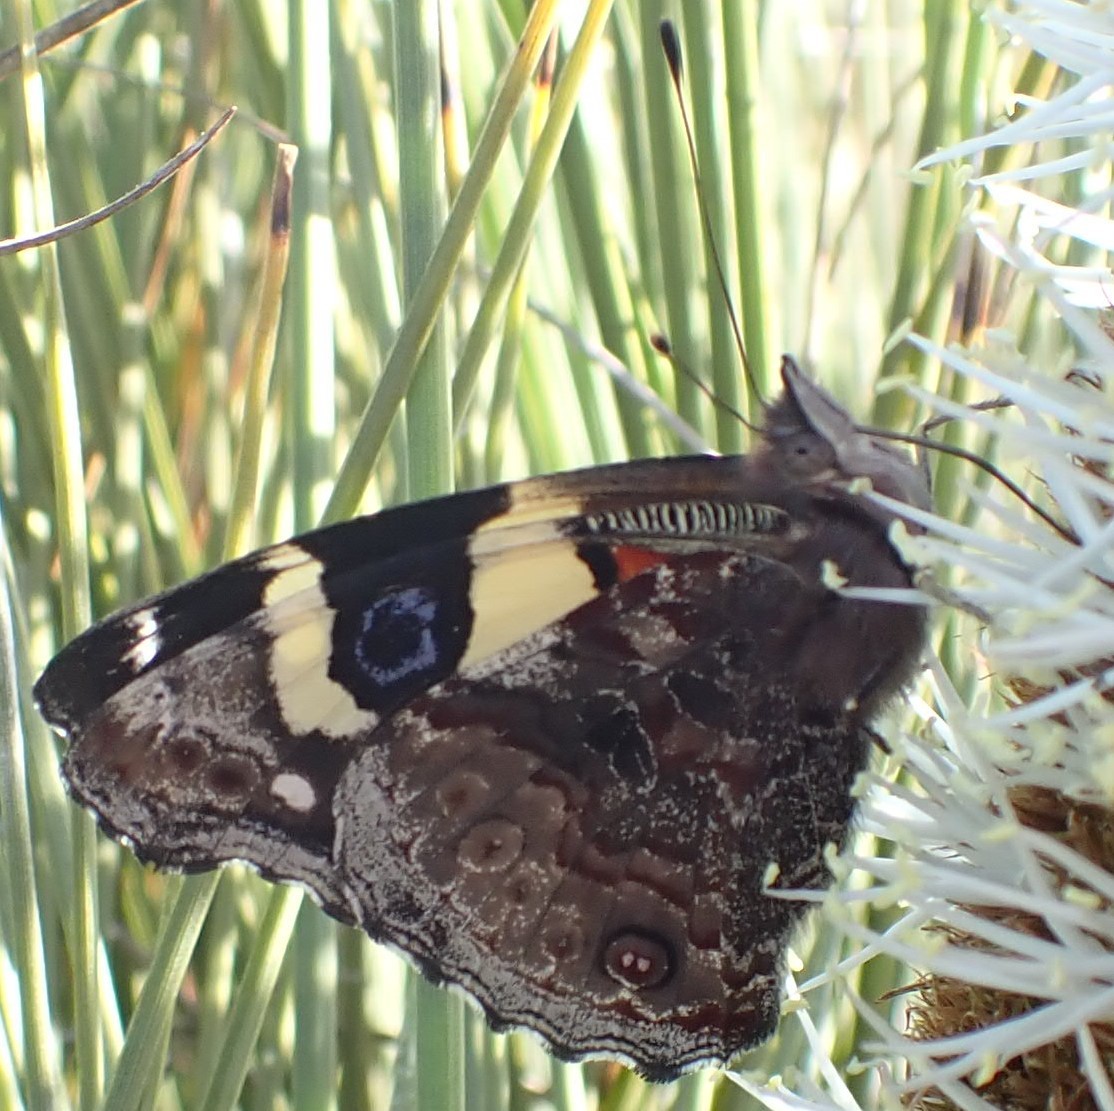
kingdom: Animalia
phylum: Arthropoda
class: Insecta
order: Lepidoptera
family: Nymphalidae
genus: Vanessa
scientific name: Vanessa itea
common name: Yellow admiral
